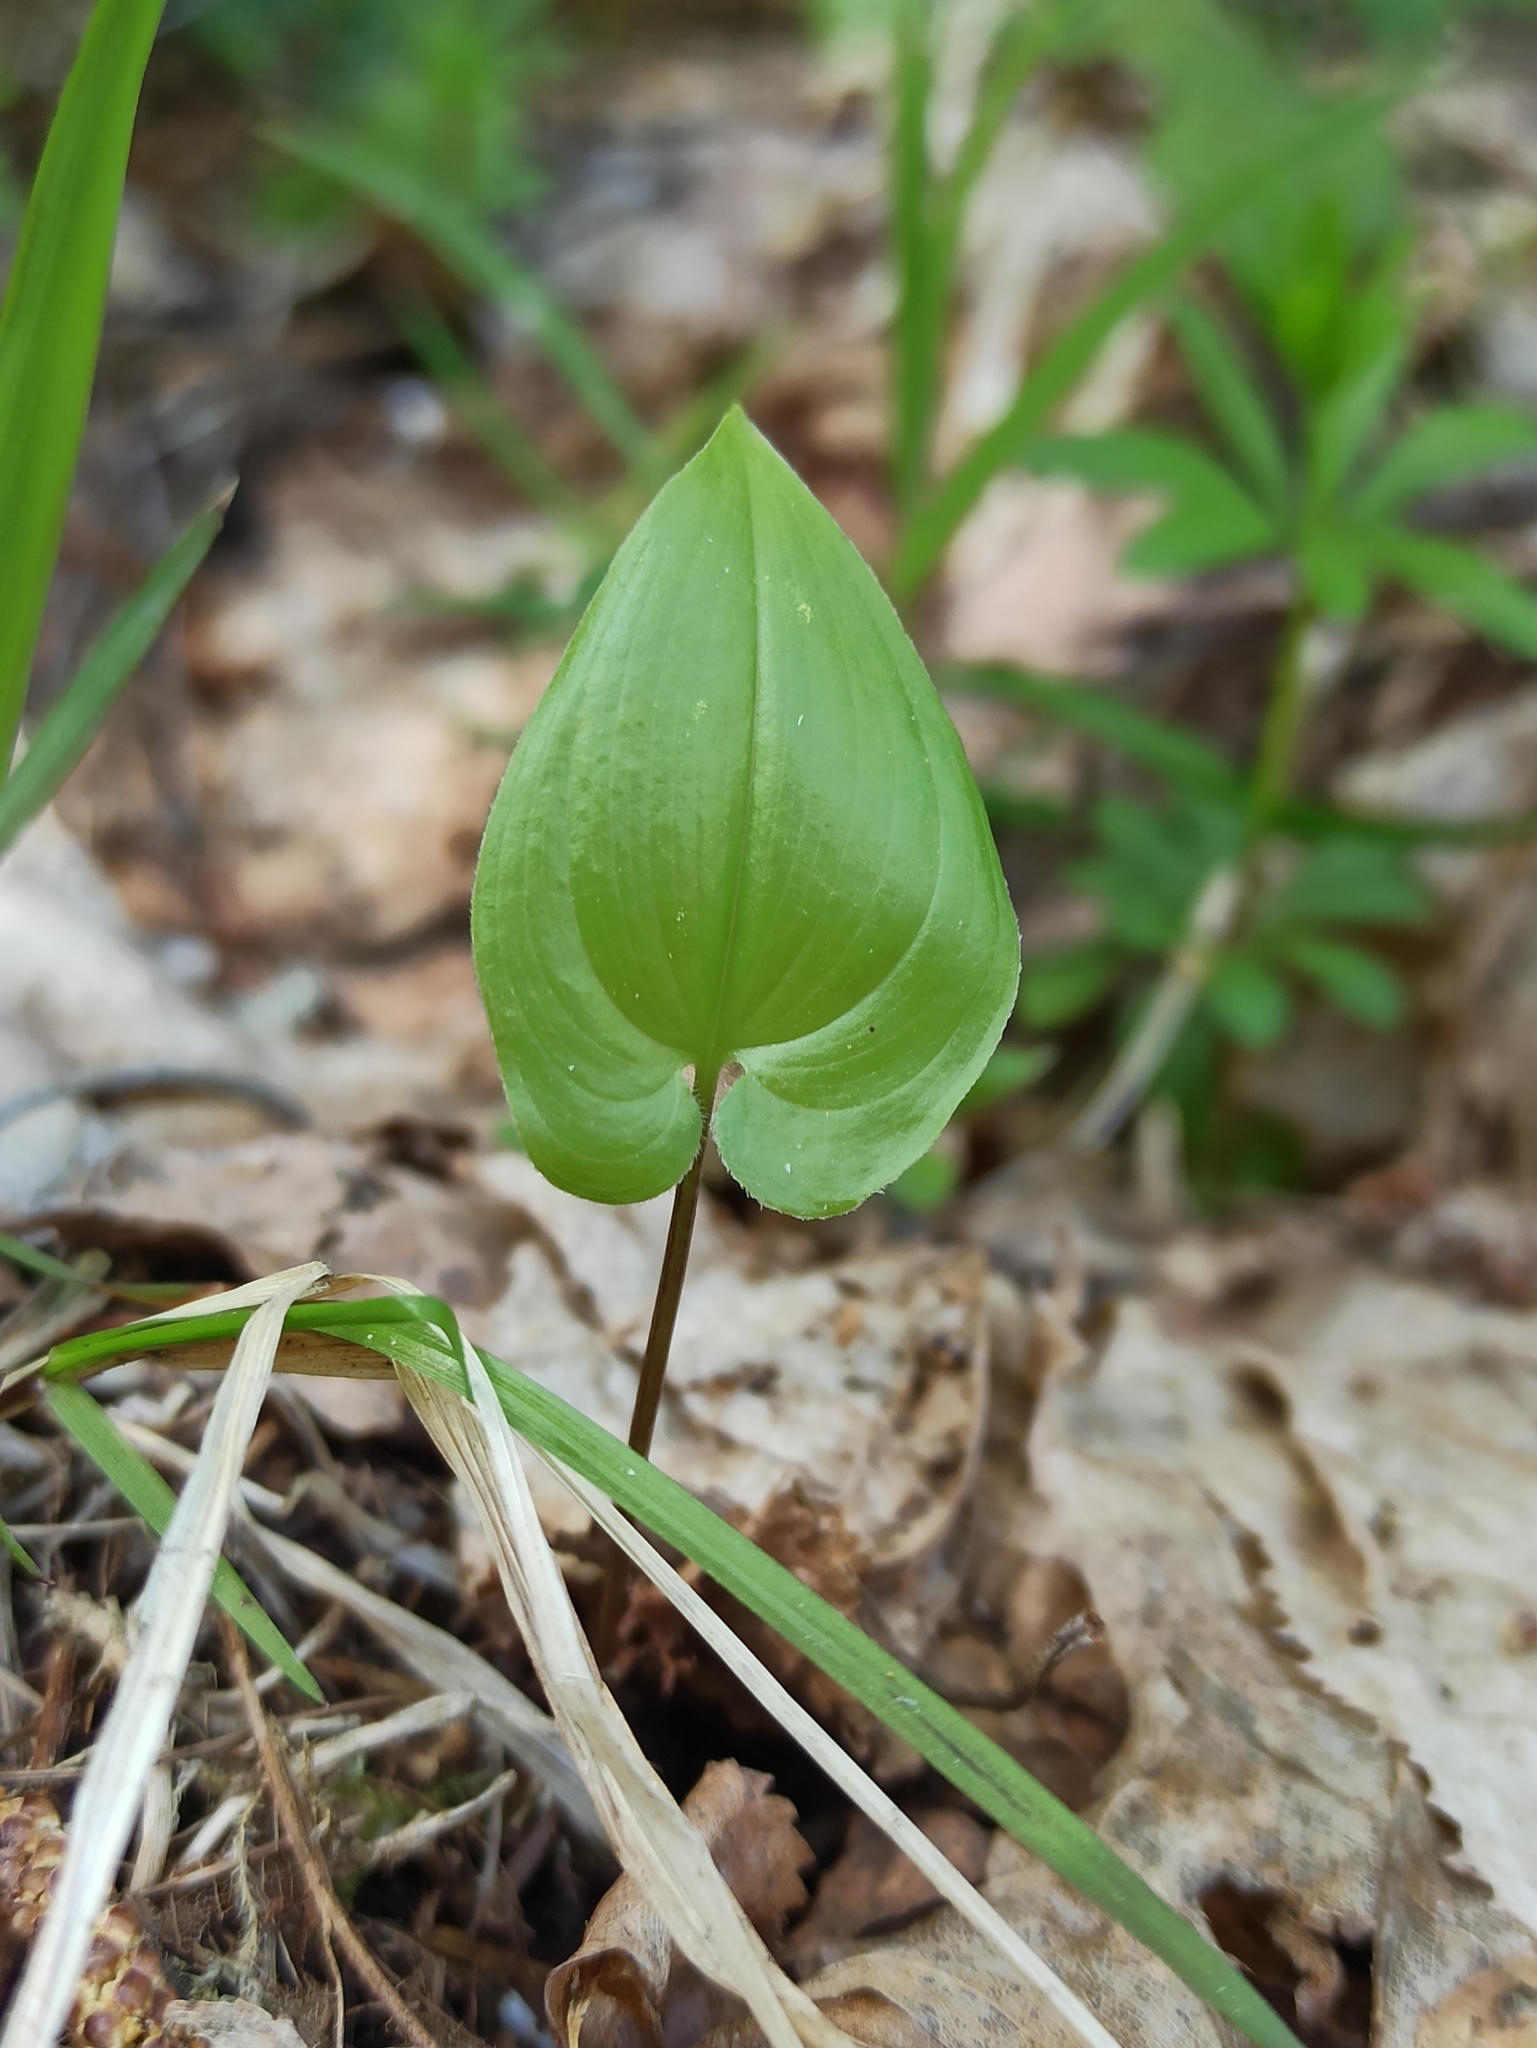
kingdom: Plantae
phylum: Tracheophyta
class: Liliopsida
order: Asparagales
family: Asparagaceae
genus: Maianthemum
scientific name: Maianthemum bifolium
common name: May lily
